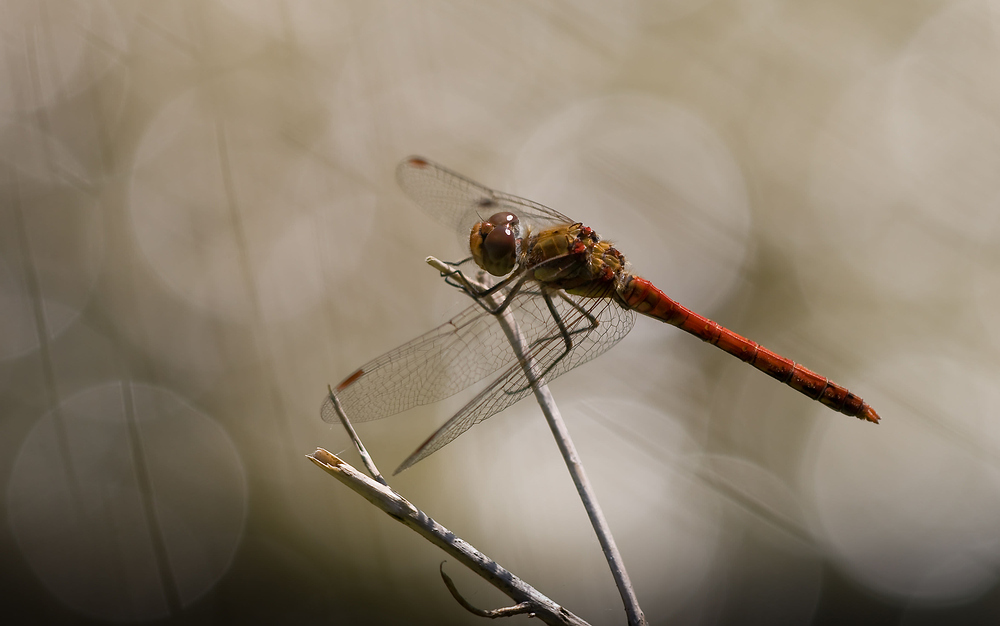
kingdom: Animalia
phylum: Arthropoda
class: Insecta
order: Odonata
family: Libellulidae
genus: Sympetrum
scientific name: Sympetrum striolatum
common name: Common darter
